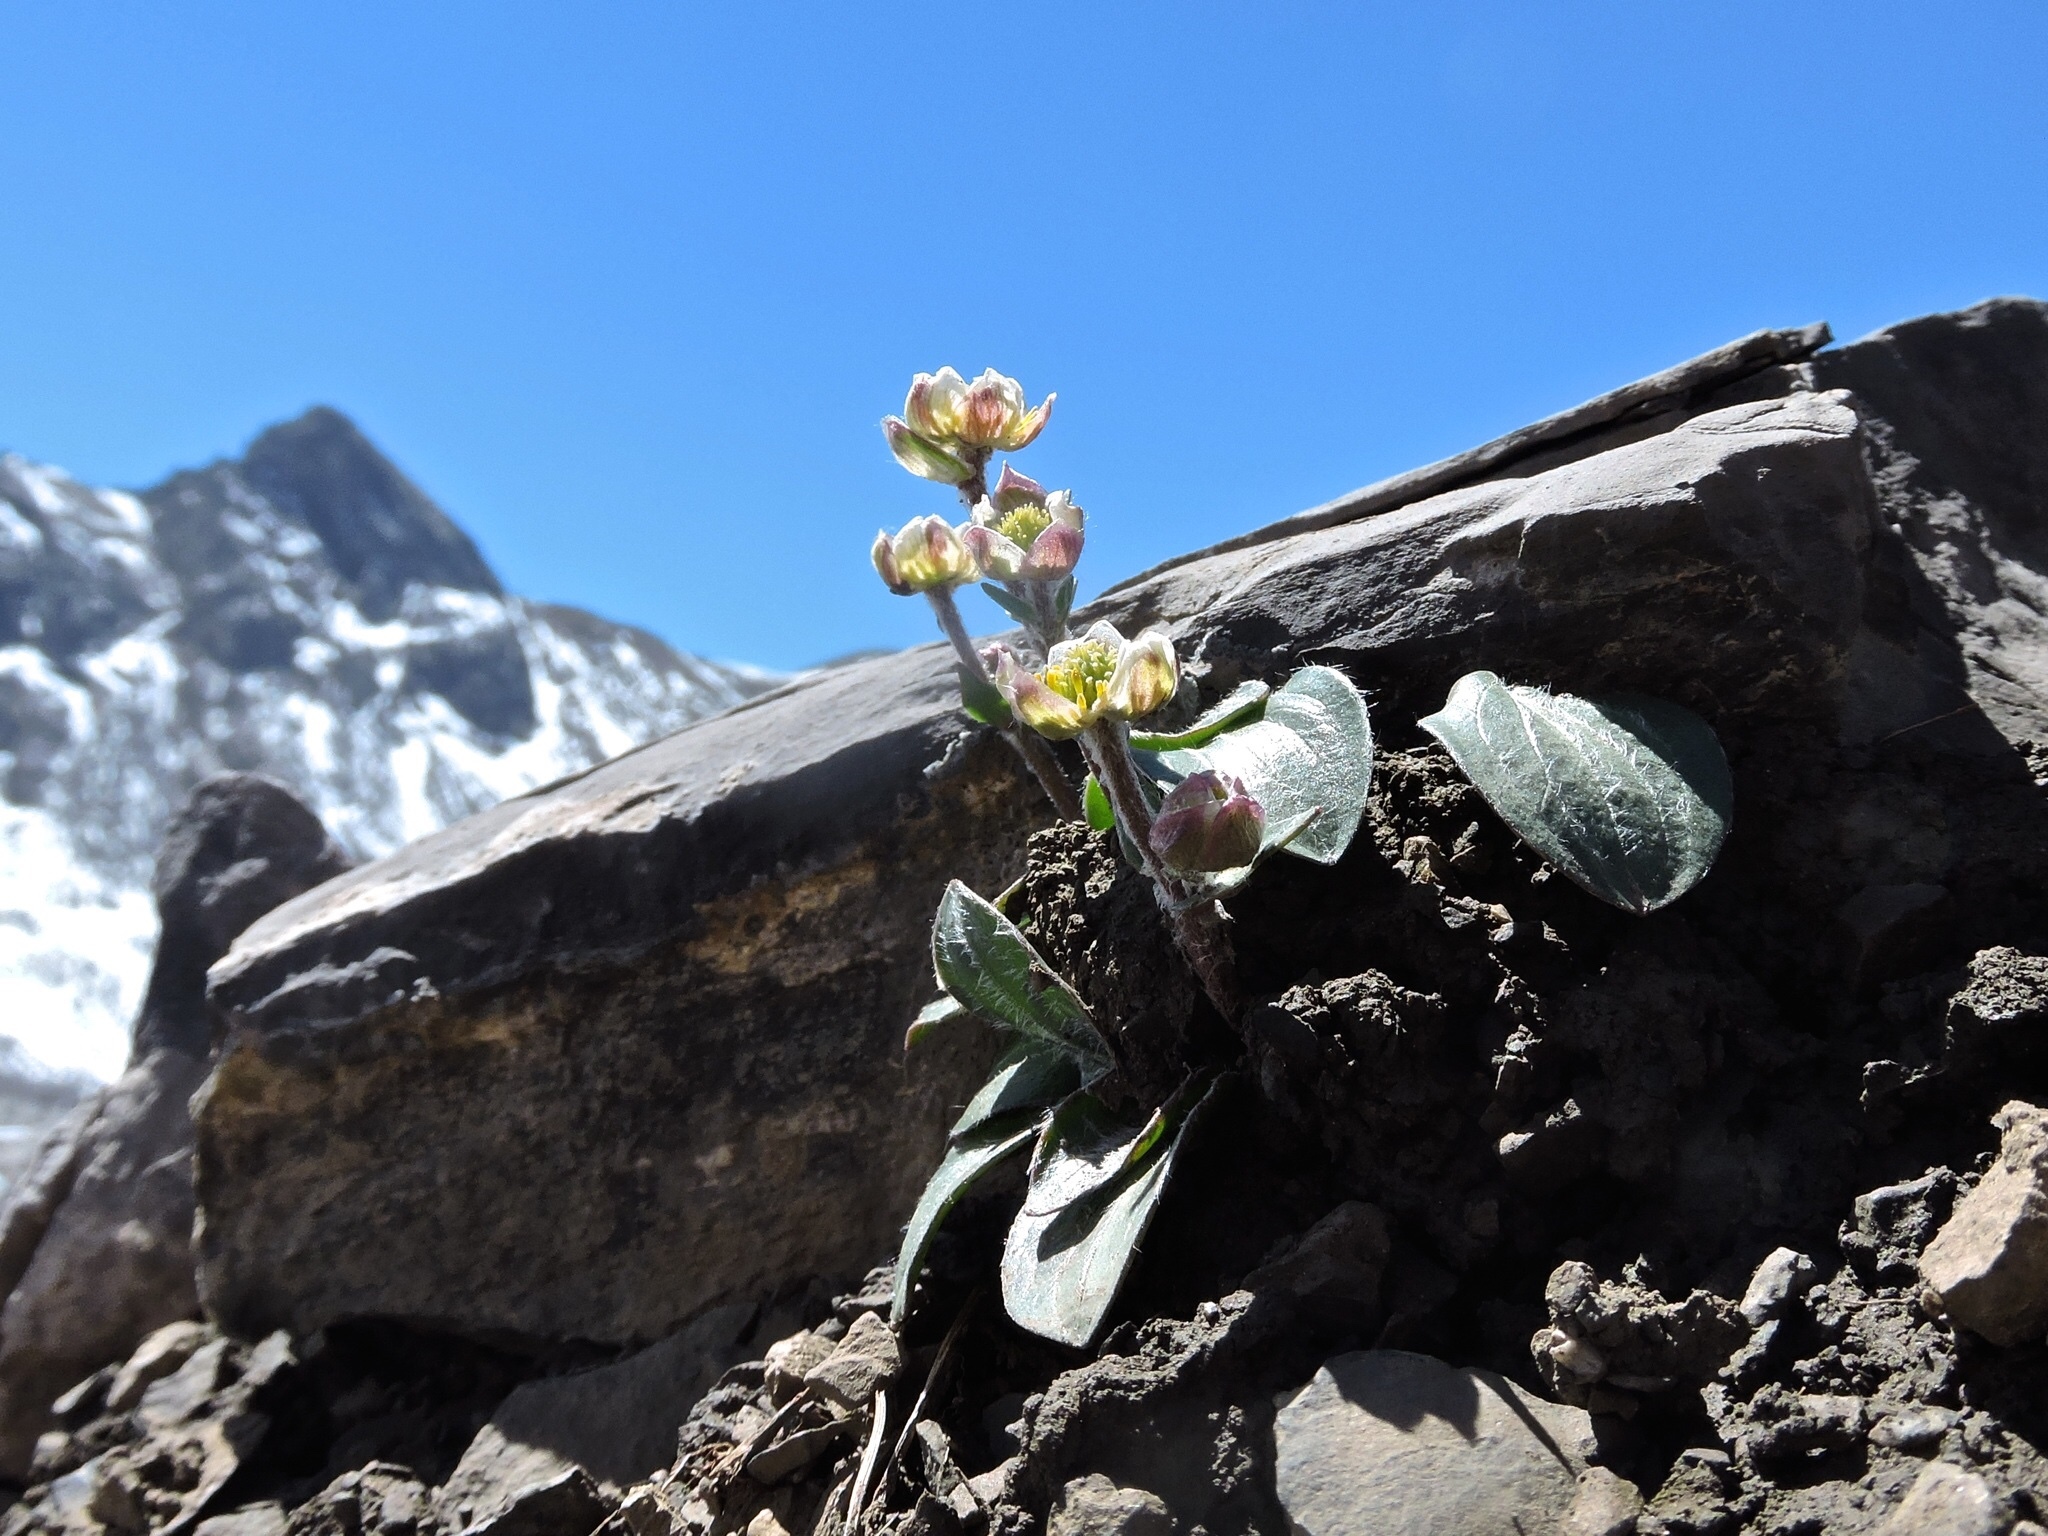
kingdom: Plantae
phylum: Tracheophyta
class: Magnoliopsida
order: Ranunculales
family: Ranunculaceae
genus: Ranunculus
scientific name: Ranunculus parnassiifolius
